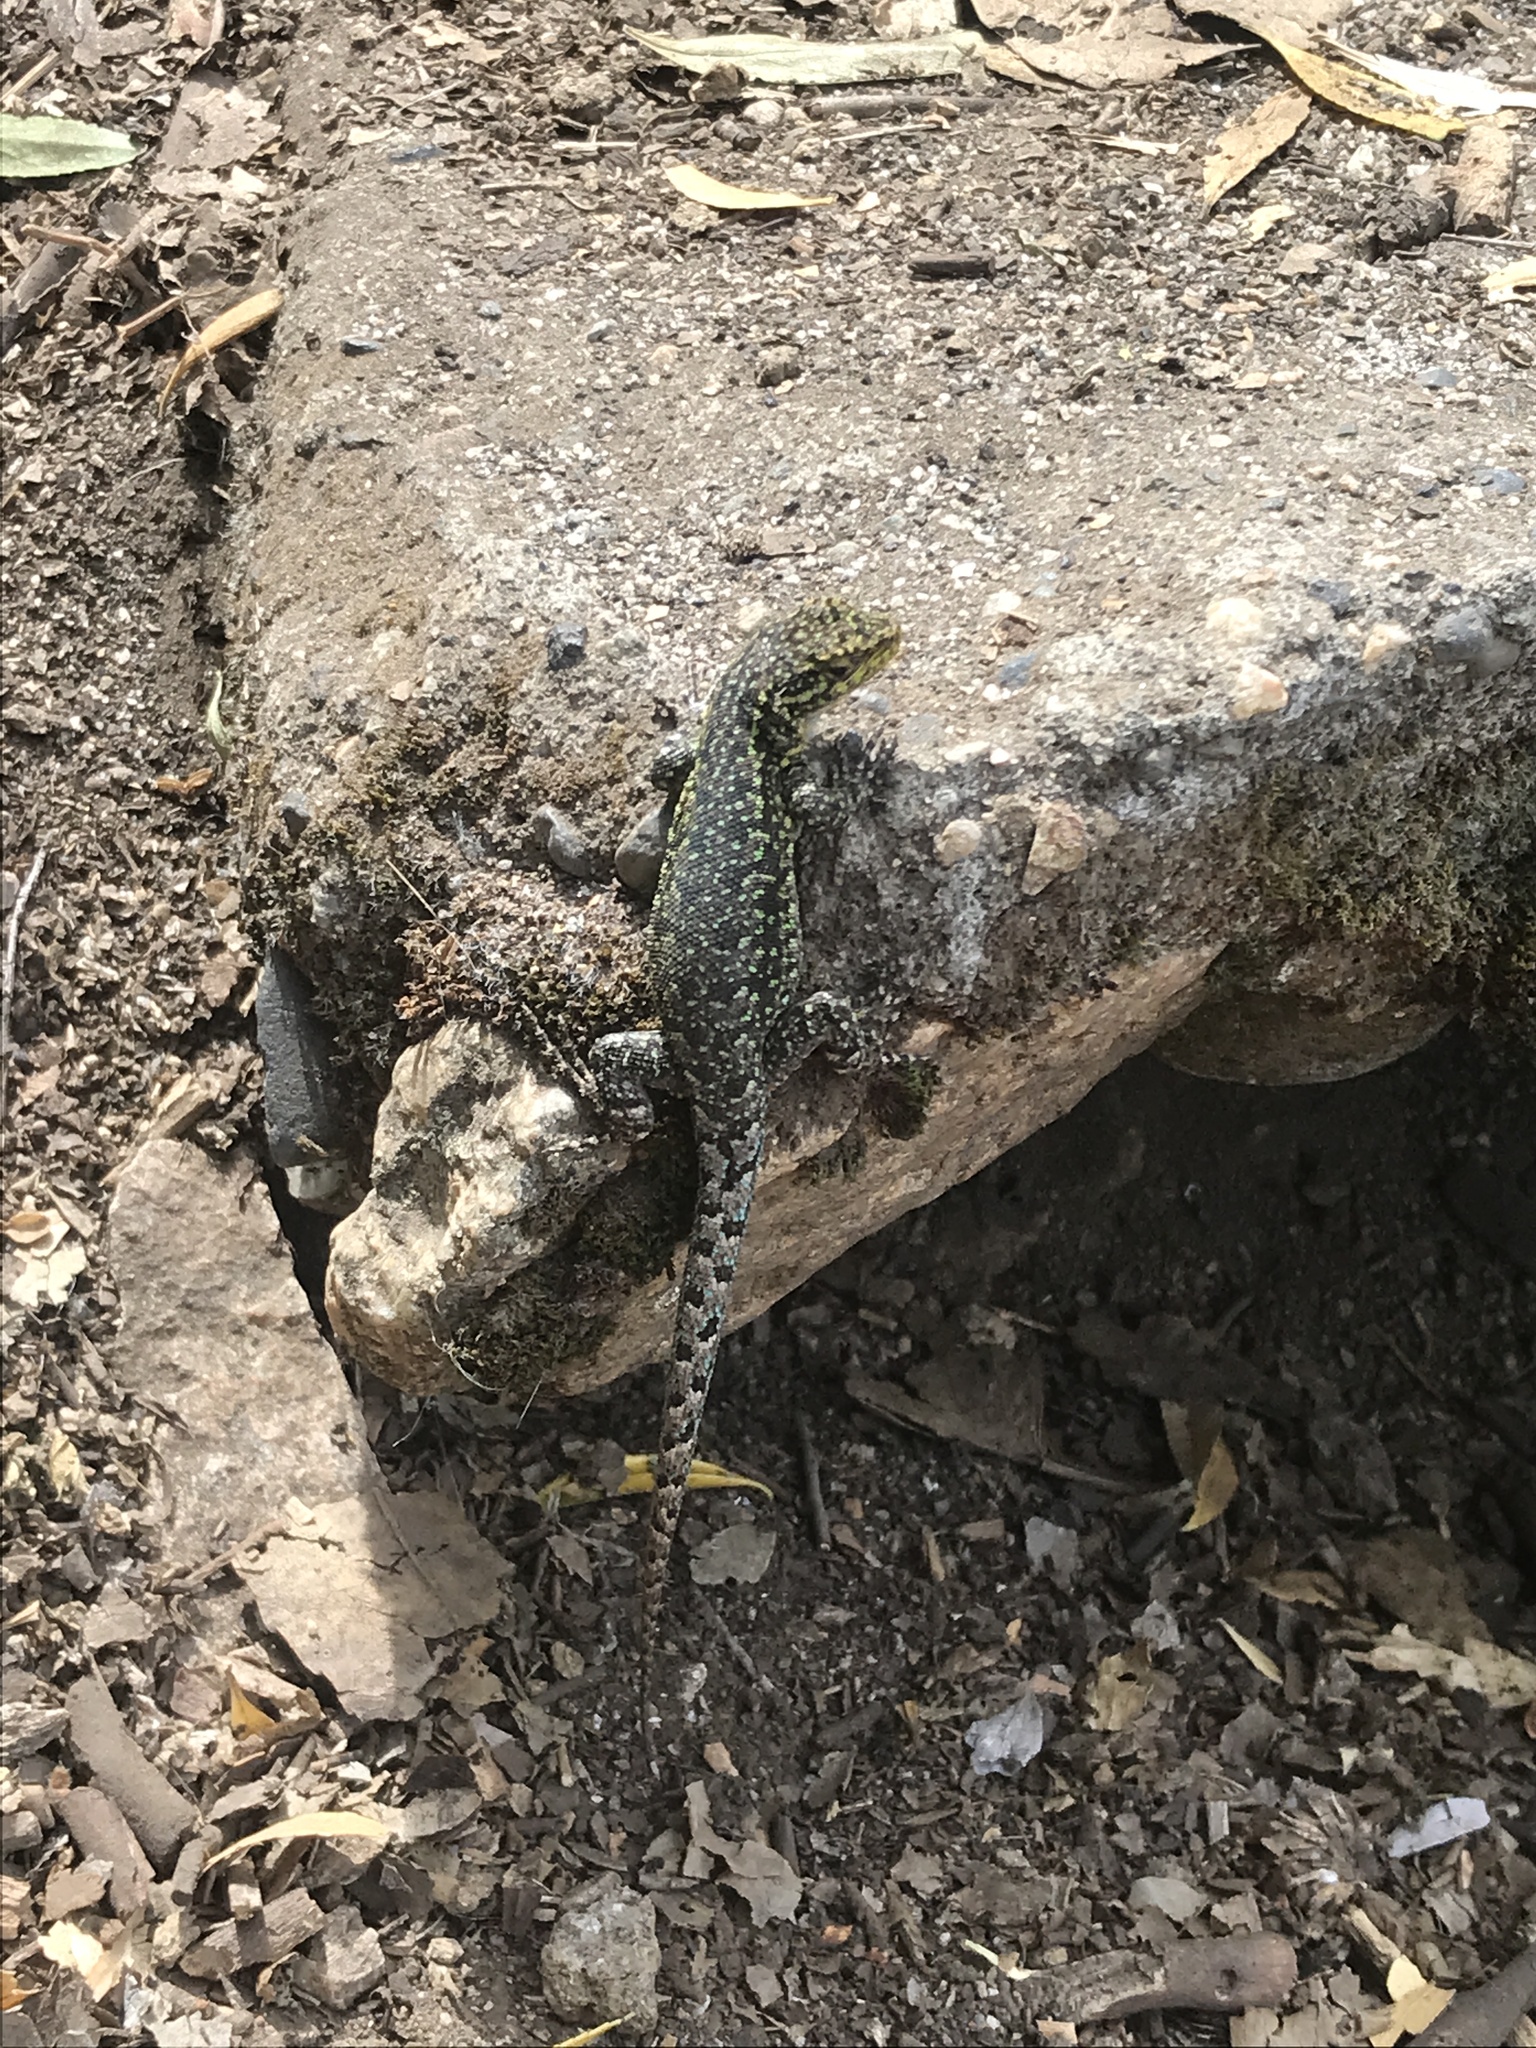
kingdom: Animalia
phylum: Chordata
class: Squamata
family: Liolaemidae
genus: Liolaemus
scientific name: Liolaemus tenuis
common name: Thin tree iguana
